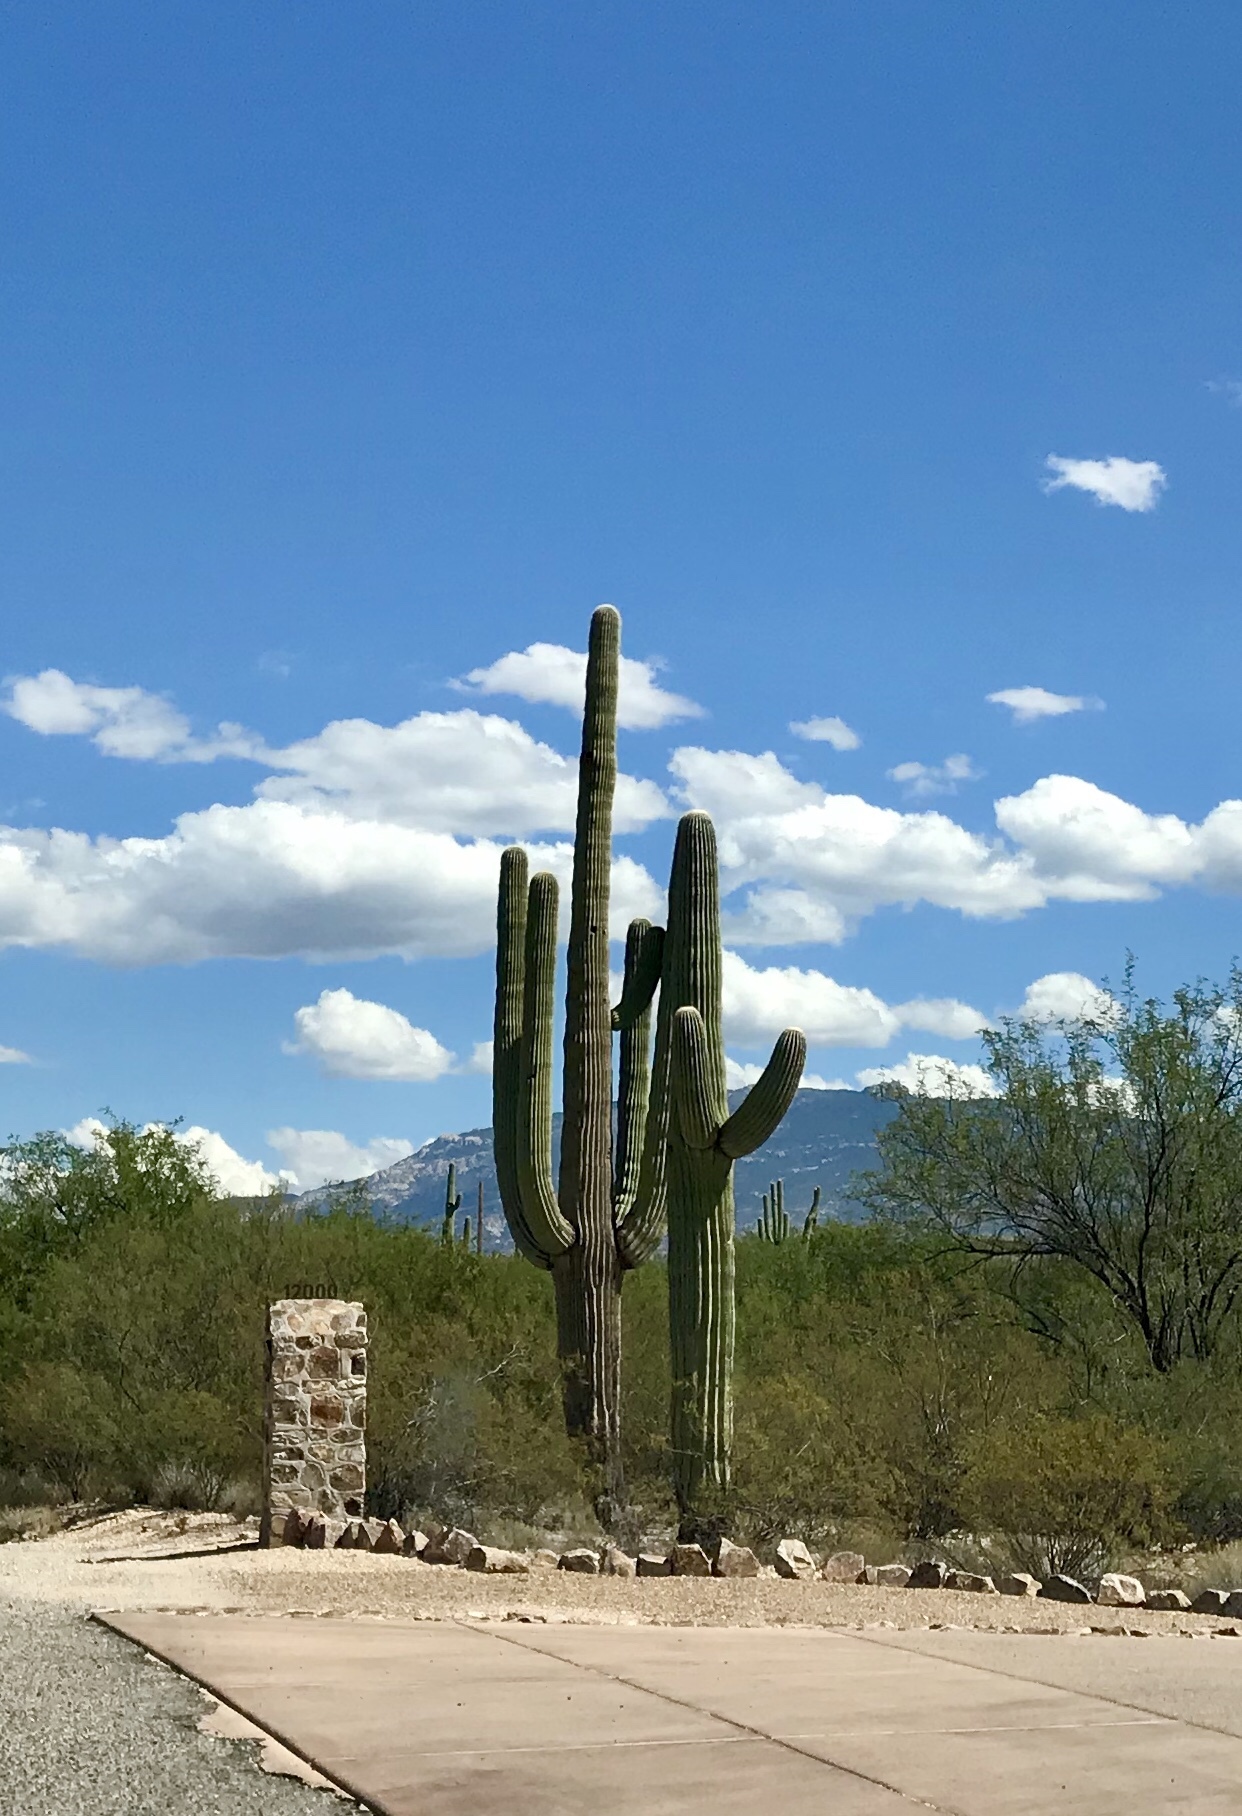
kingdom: Plantae
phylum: Tracheophyta
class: Magnoliopsida
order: Caryophyllales
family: Cactaceae
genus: Carnegiea
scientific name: Carnegiea gigantea
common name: Saguaro
